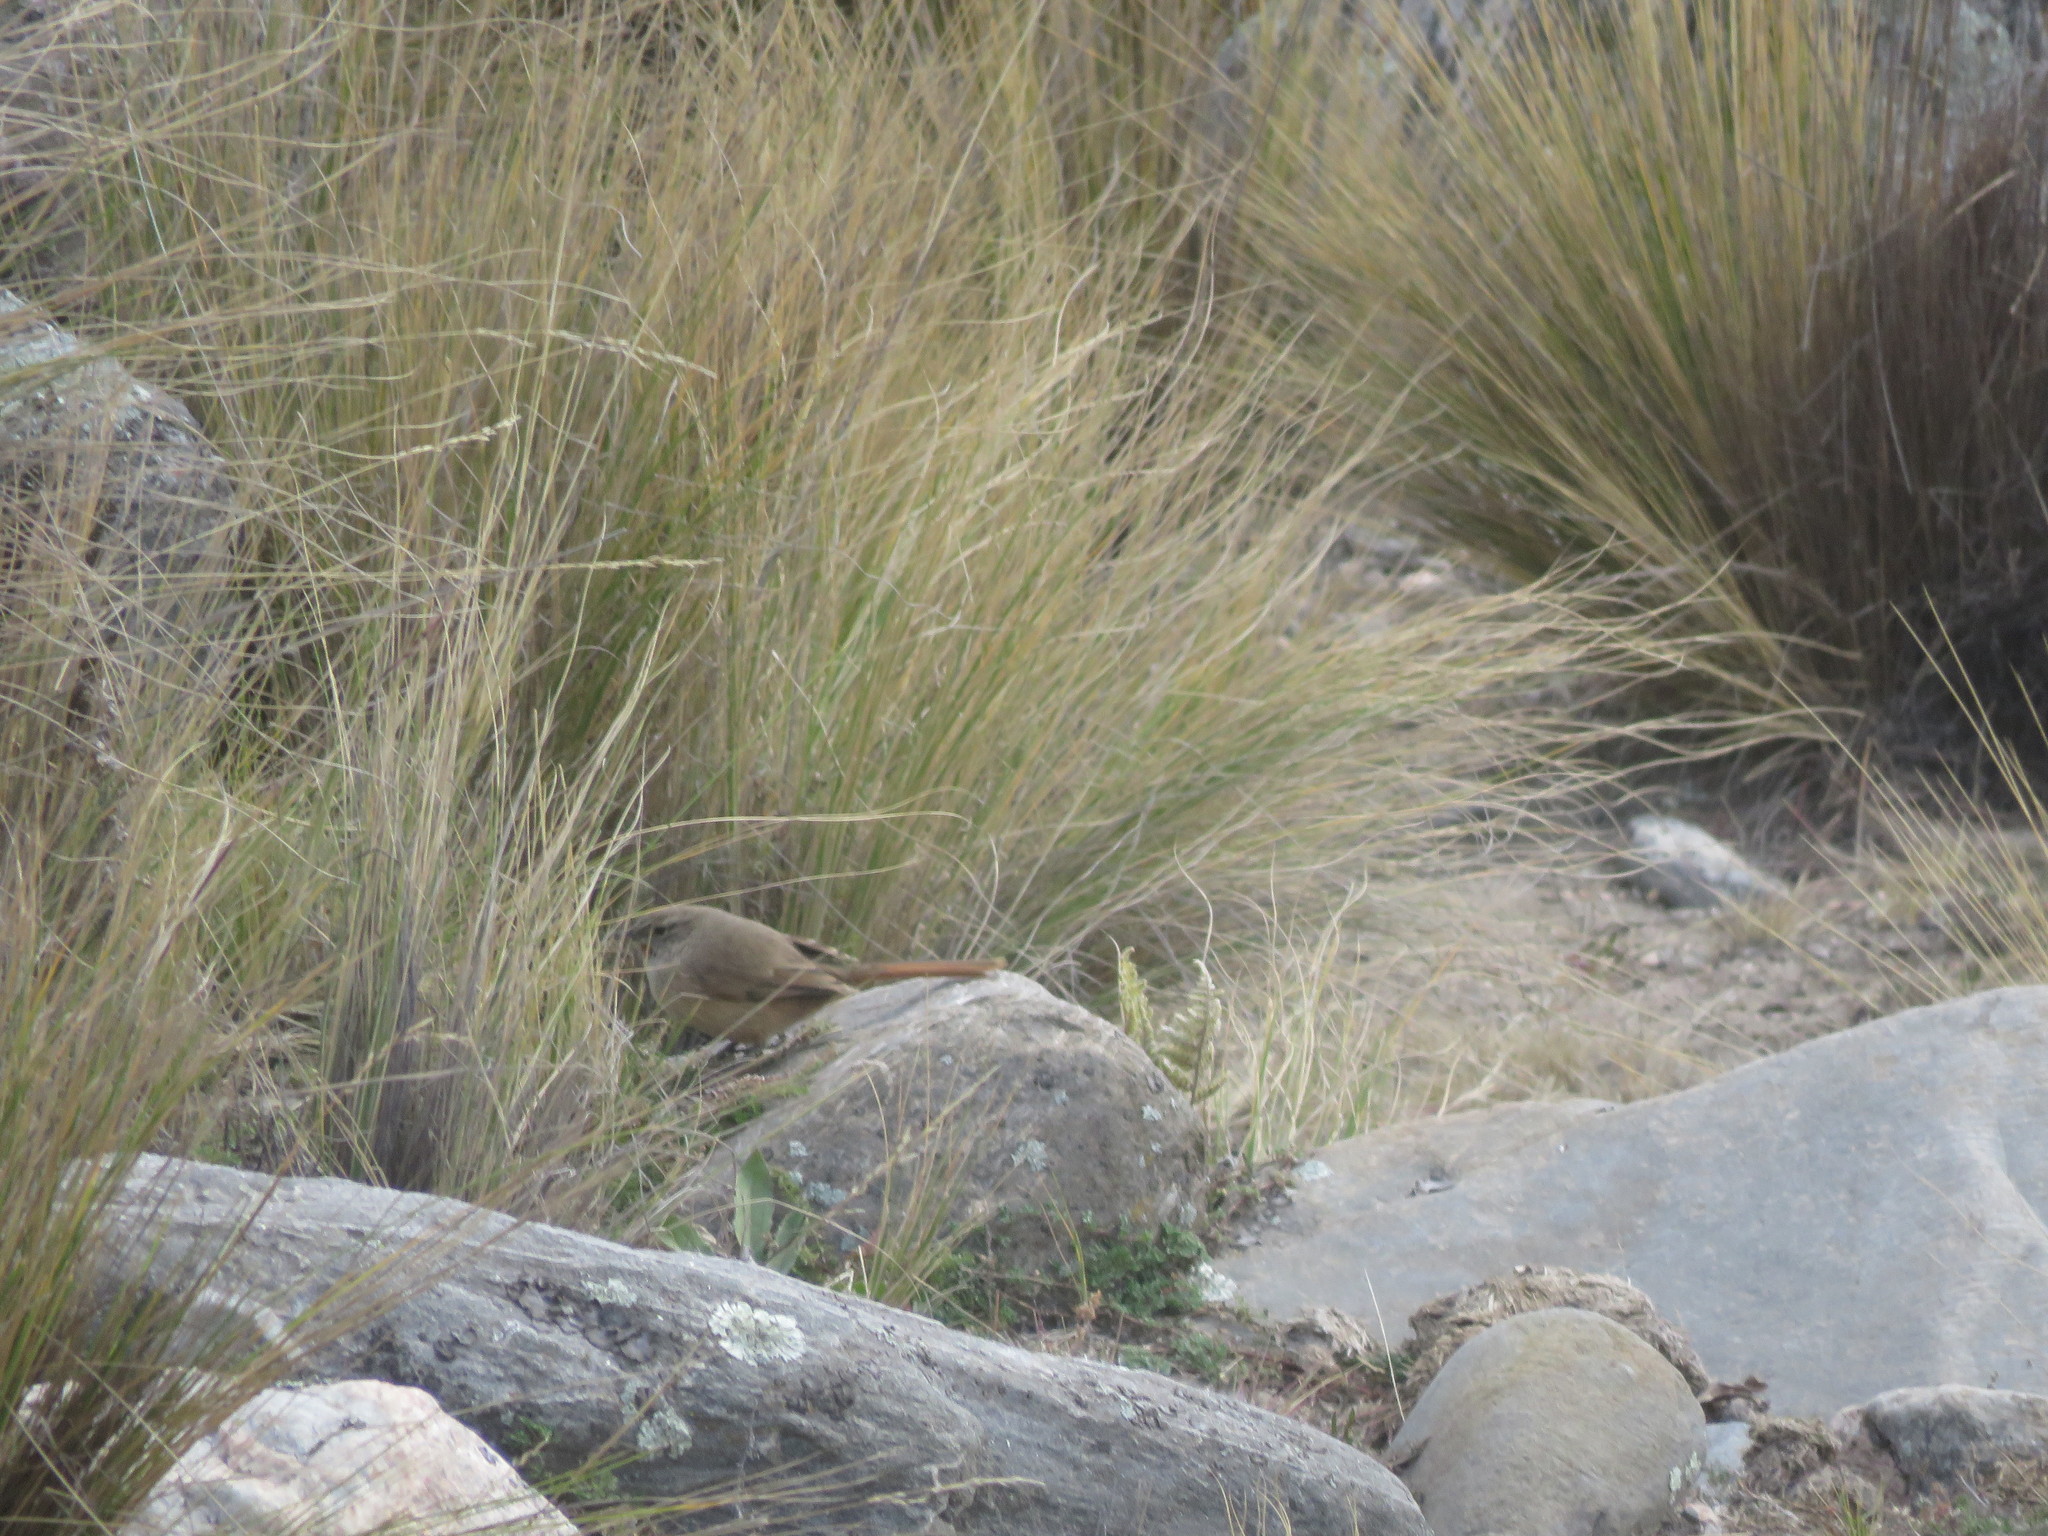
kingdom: Animalia
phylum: Chordata
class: Aves
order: Passeriformes
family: Furnariidae
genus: Asthenes
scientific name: Asthenes modesta
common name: Cordilleran canastero
